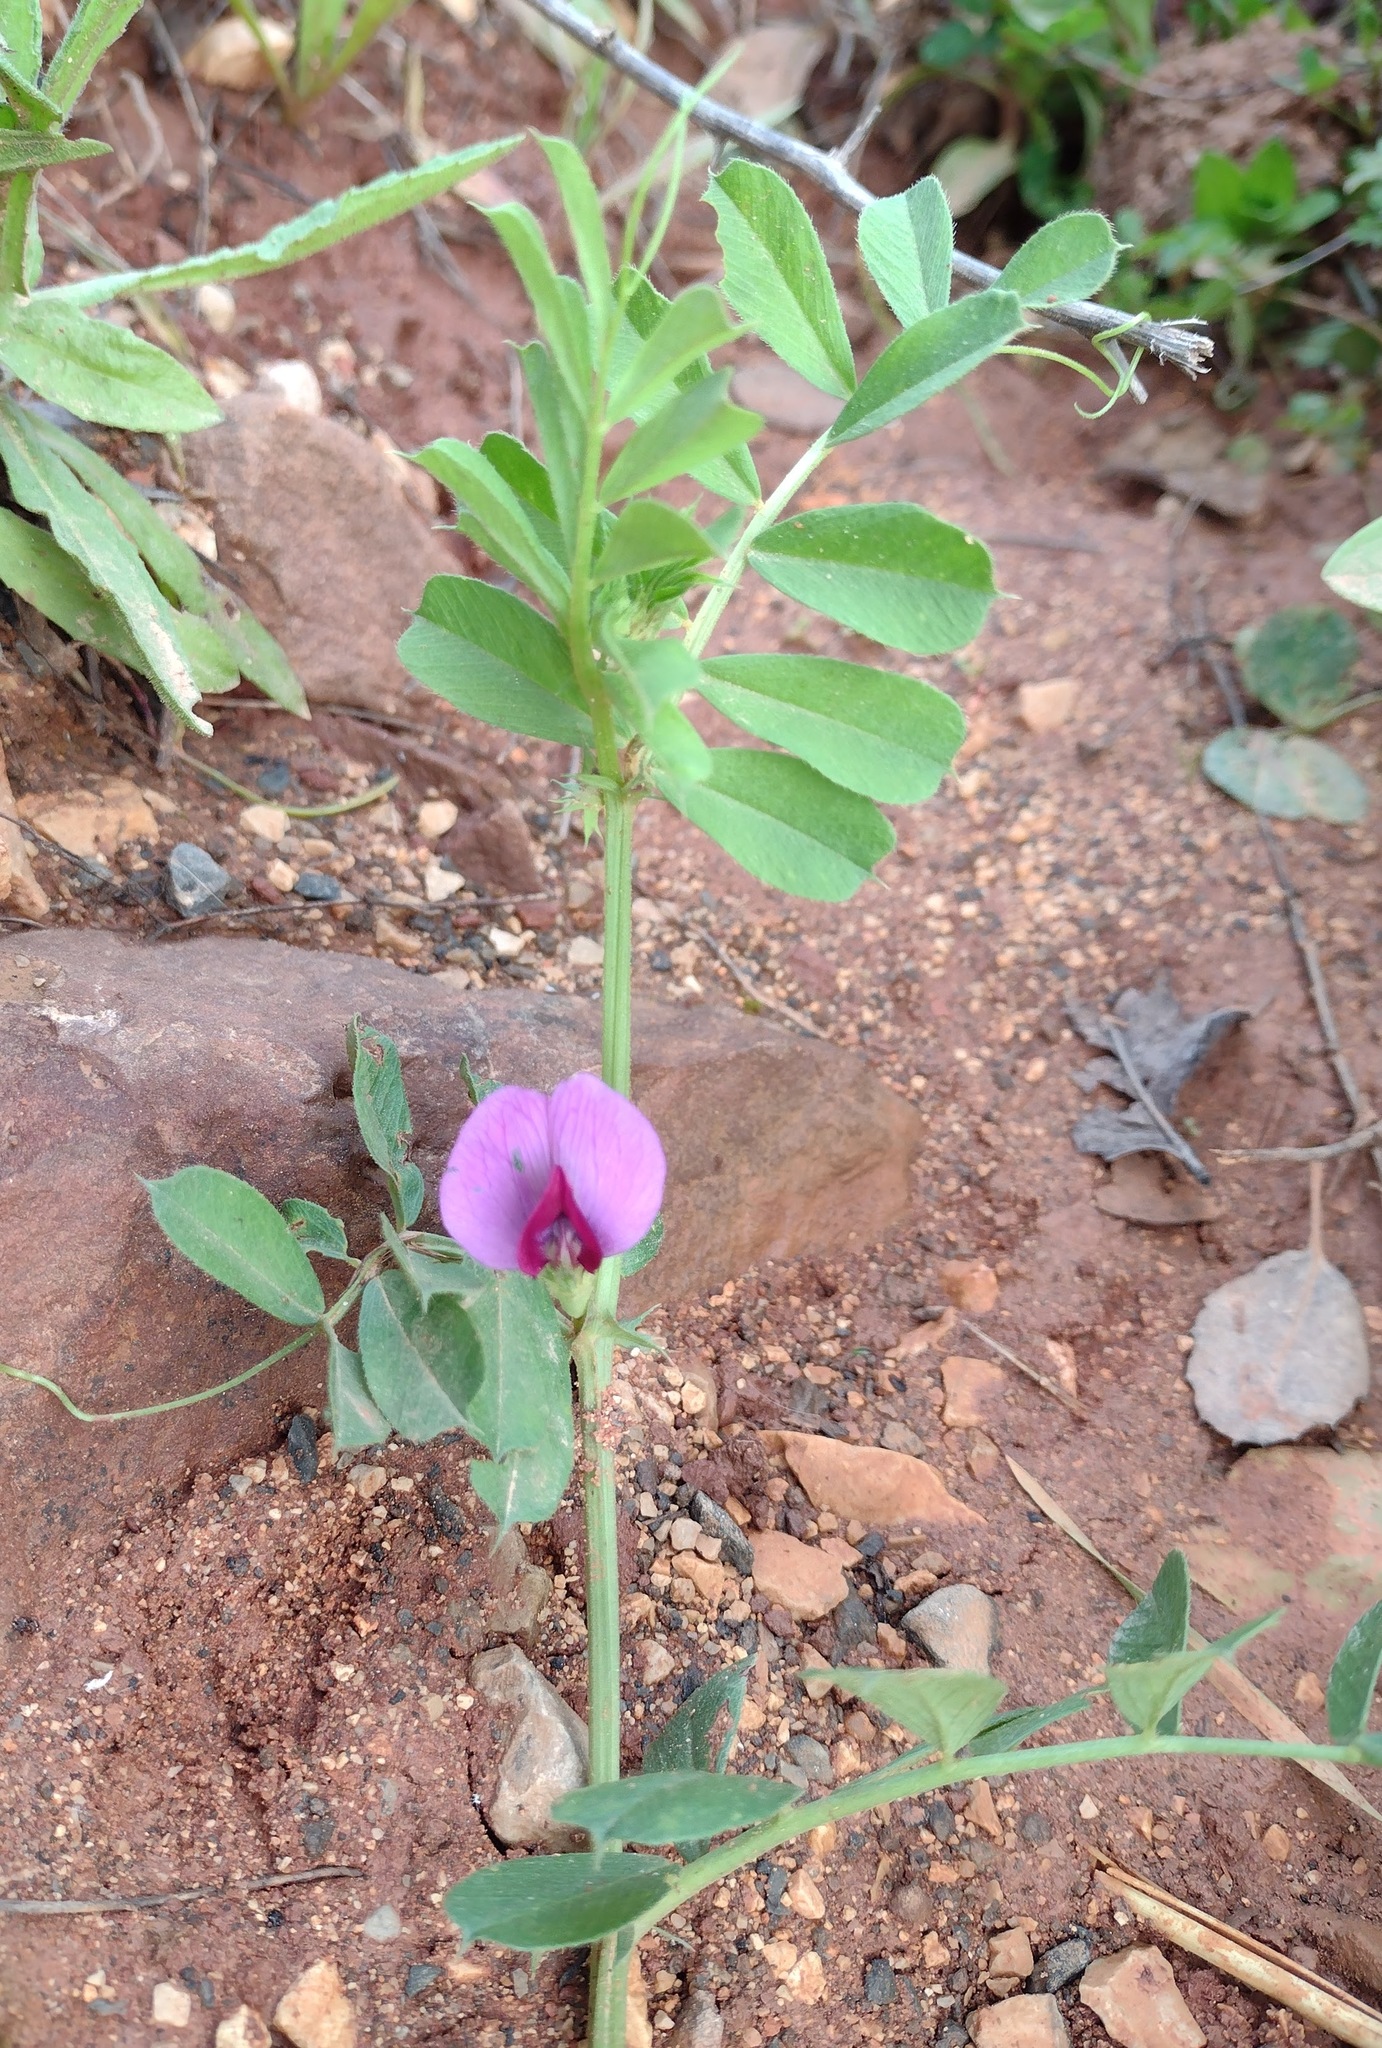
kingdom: Plantae
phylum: Tracheophyta
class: Magnoliopsida
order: Fabales
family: Fabaceae
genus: Vicia
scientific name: Vicia sativa
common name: Garden vetch
